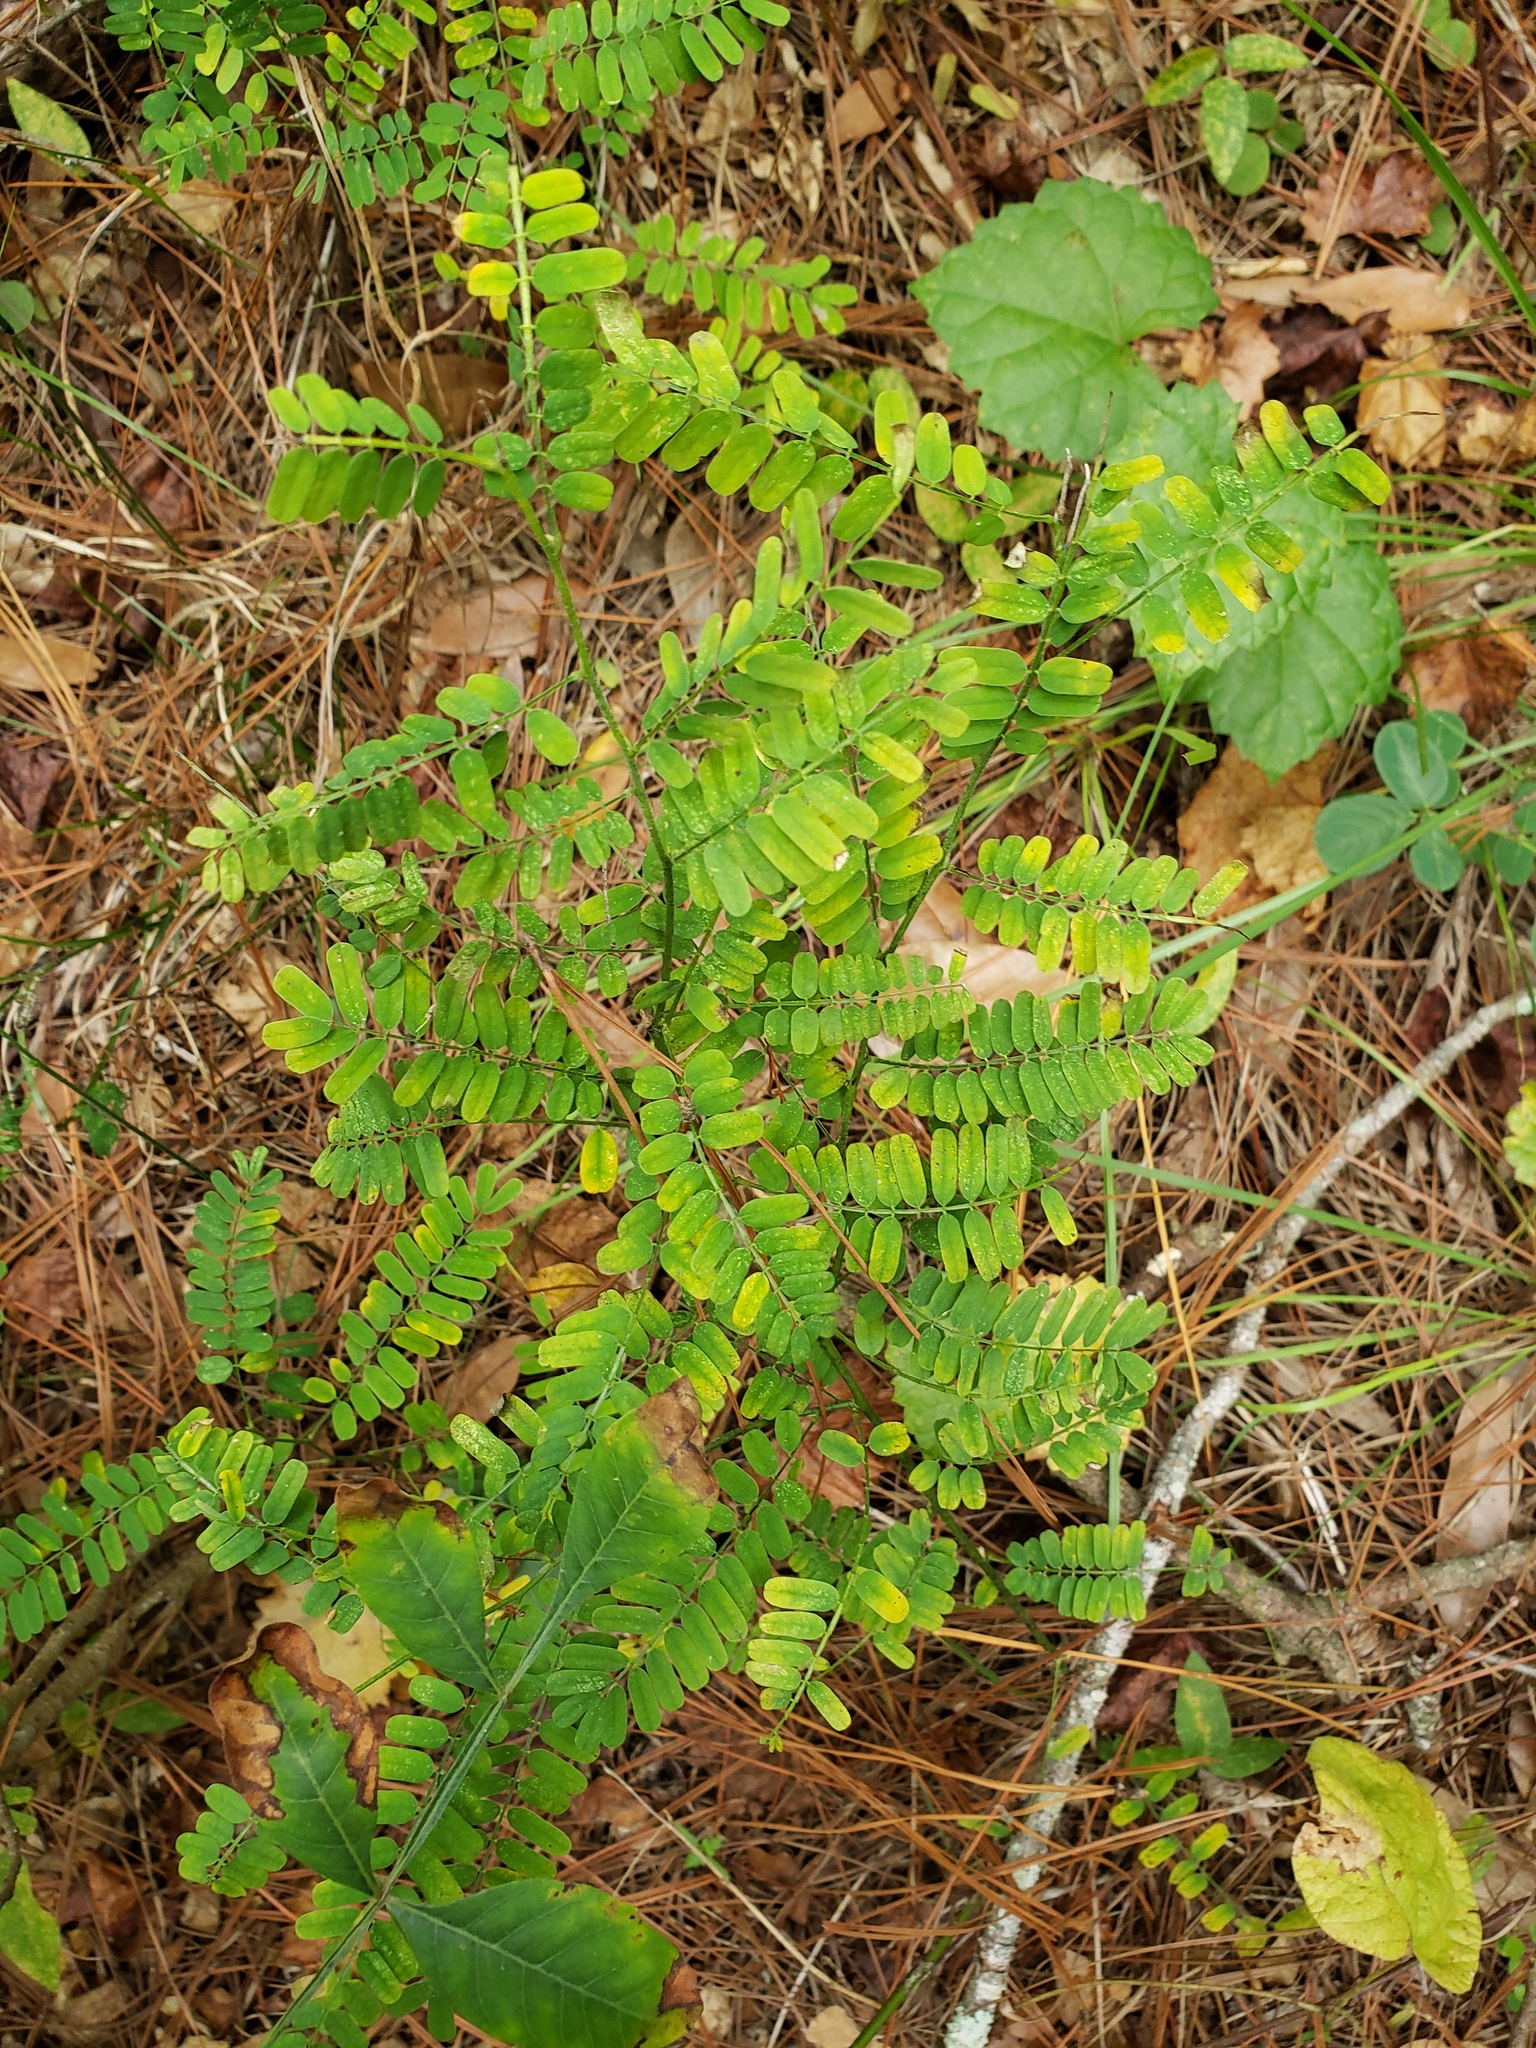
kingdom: Plantae
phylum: Tracheophyta
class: Magnoliopsida
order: Fabales
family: Fabaceae
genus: Abrus
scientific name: Abrus precatorius
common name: Rosarypea
